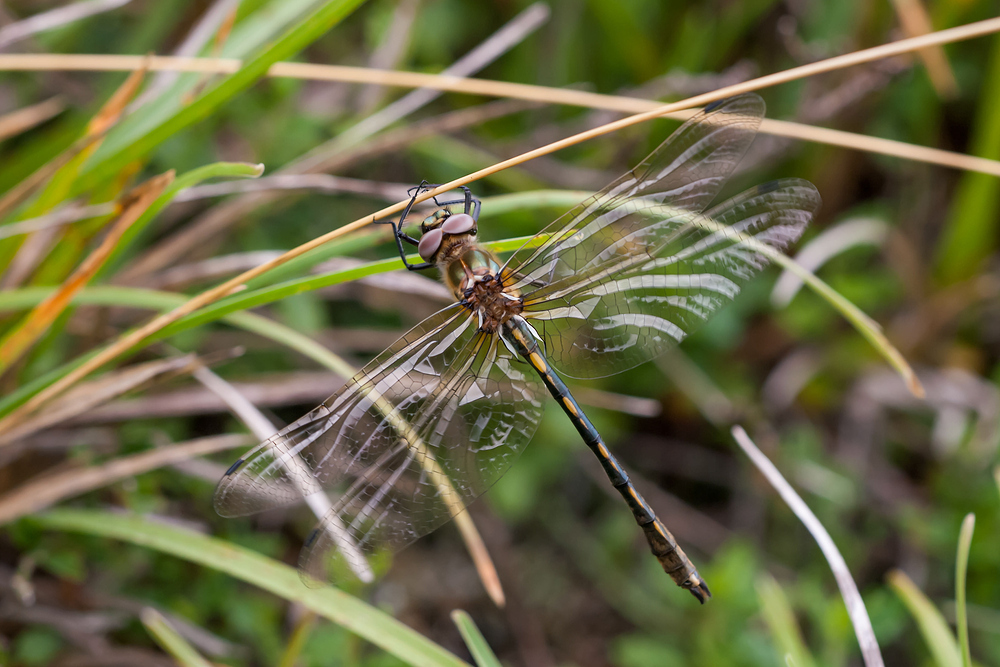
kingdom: Animalia
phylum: Arthropoda
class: Insecta
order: Odonata
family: Corduliidae
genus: Oxygastra
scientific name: Oxygastra curtisii
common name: Orange-spotted emerald
